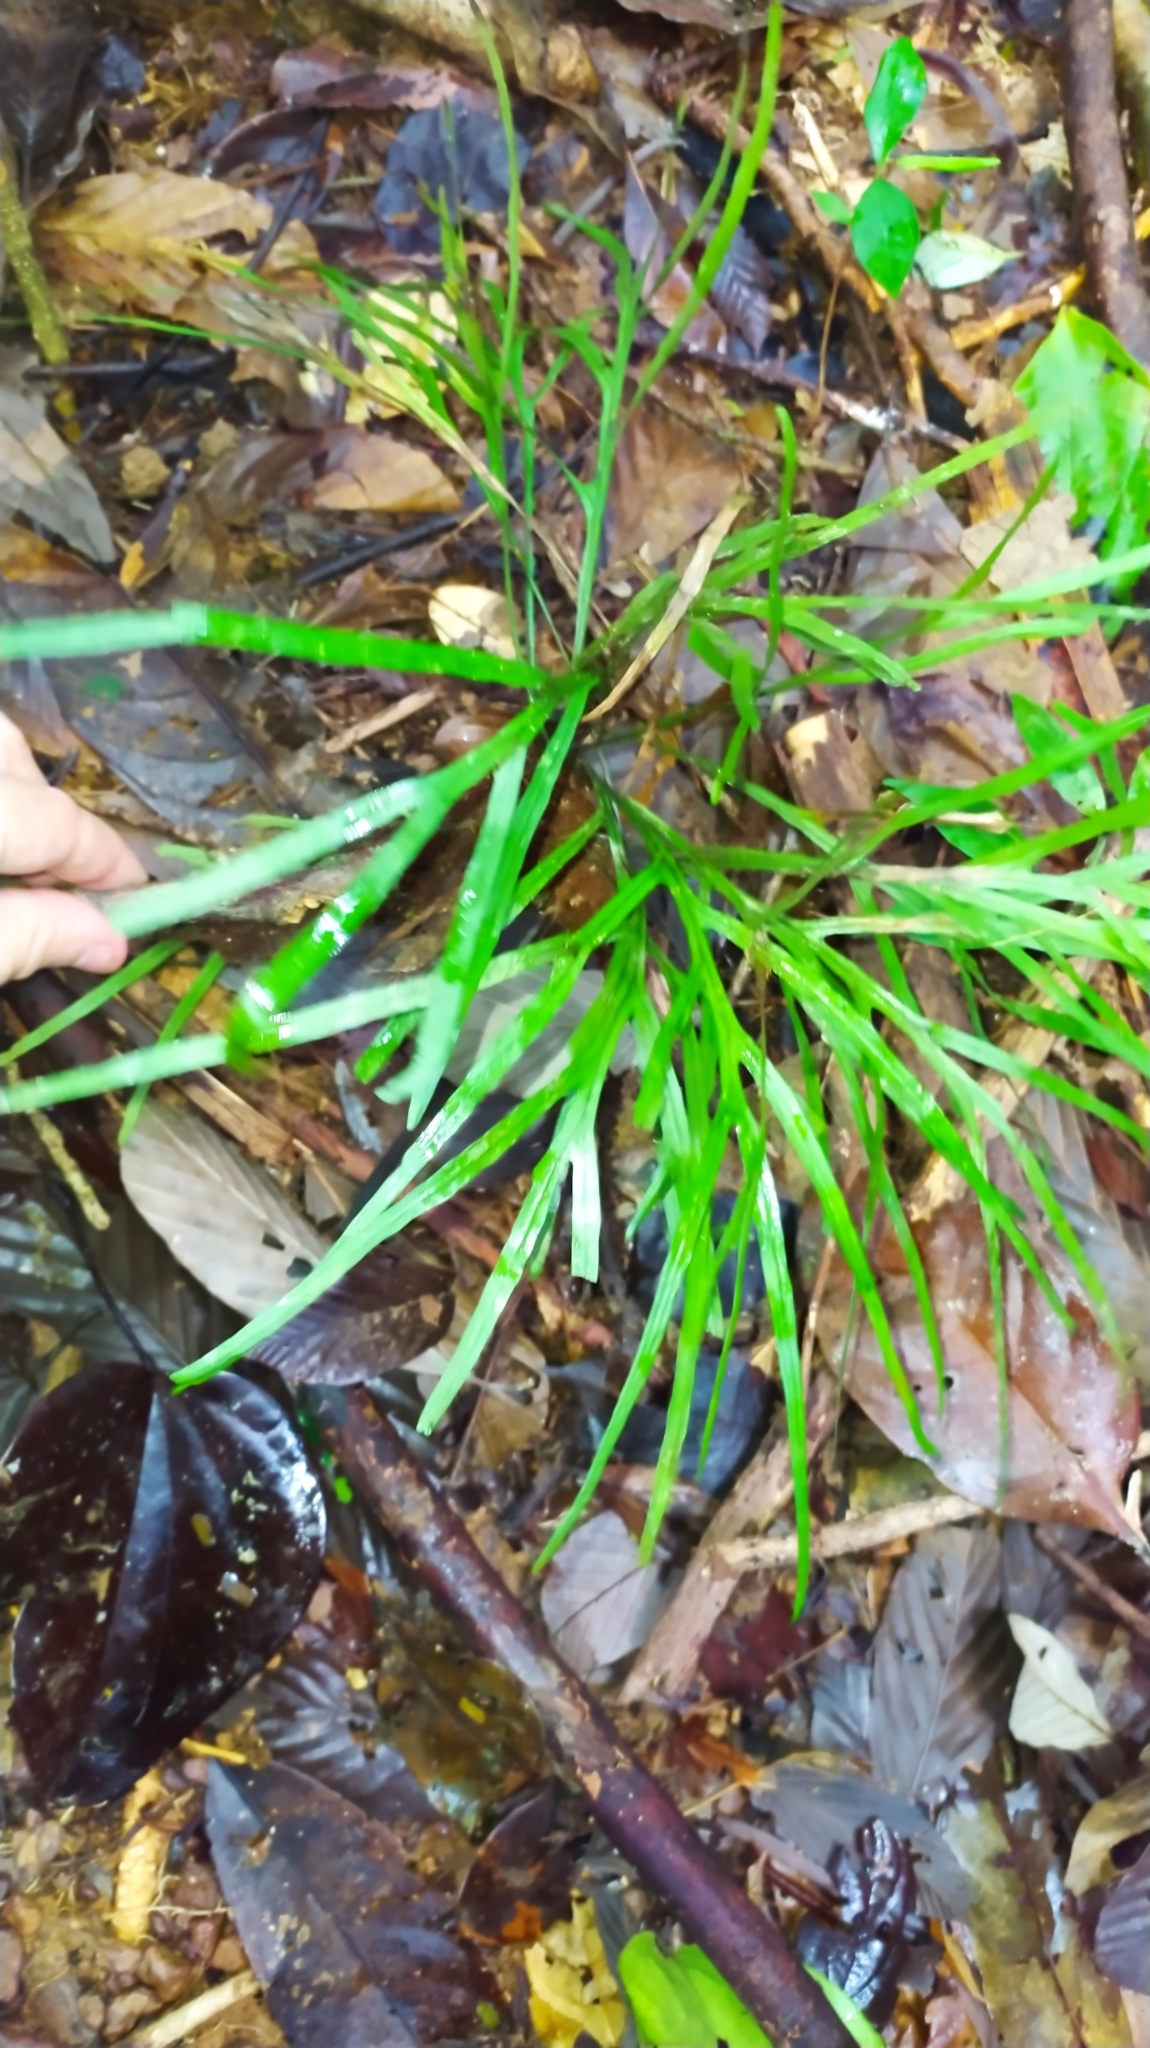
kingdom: Plantae
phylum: Tracheophyta
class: Polypodiopsida
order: Polypodiales
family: Polypodiaceae
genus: Pleopeltis
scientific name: Pleopeltis desvauxii
